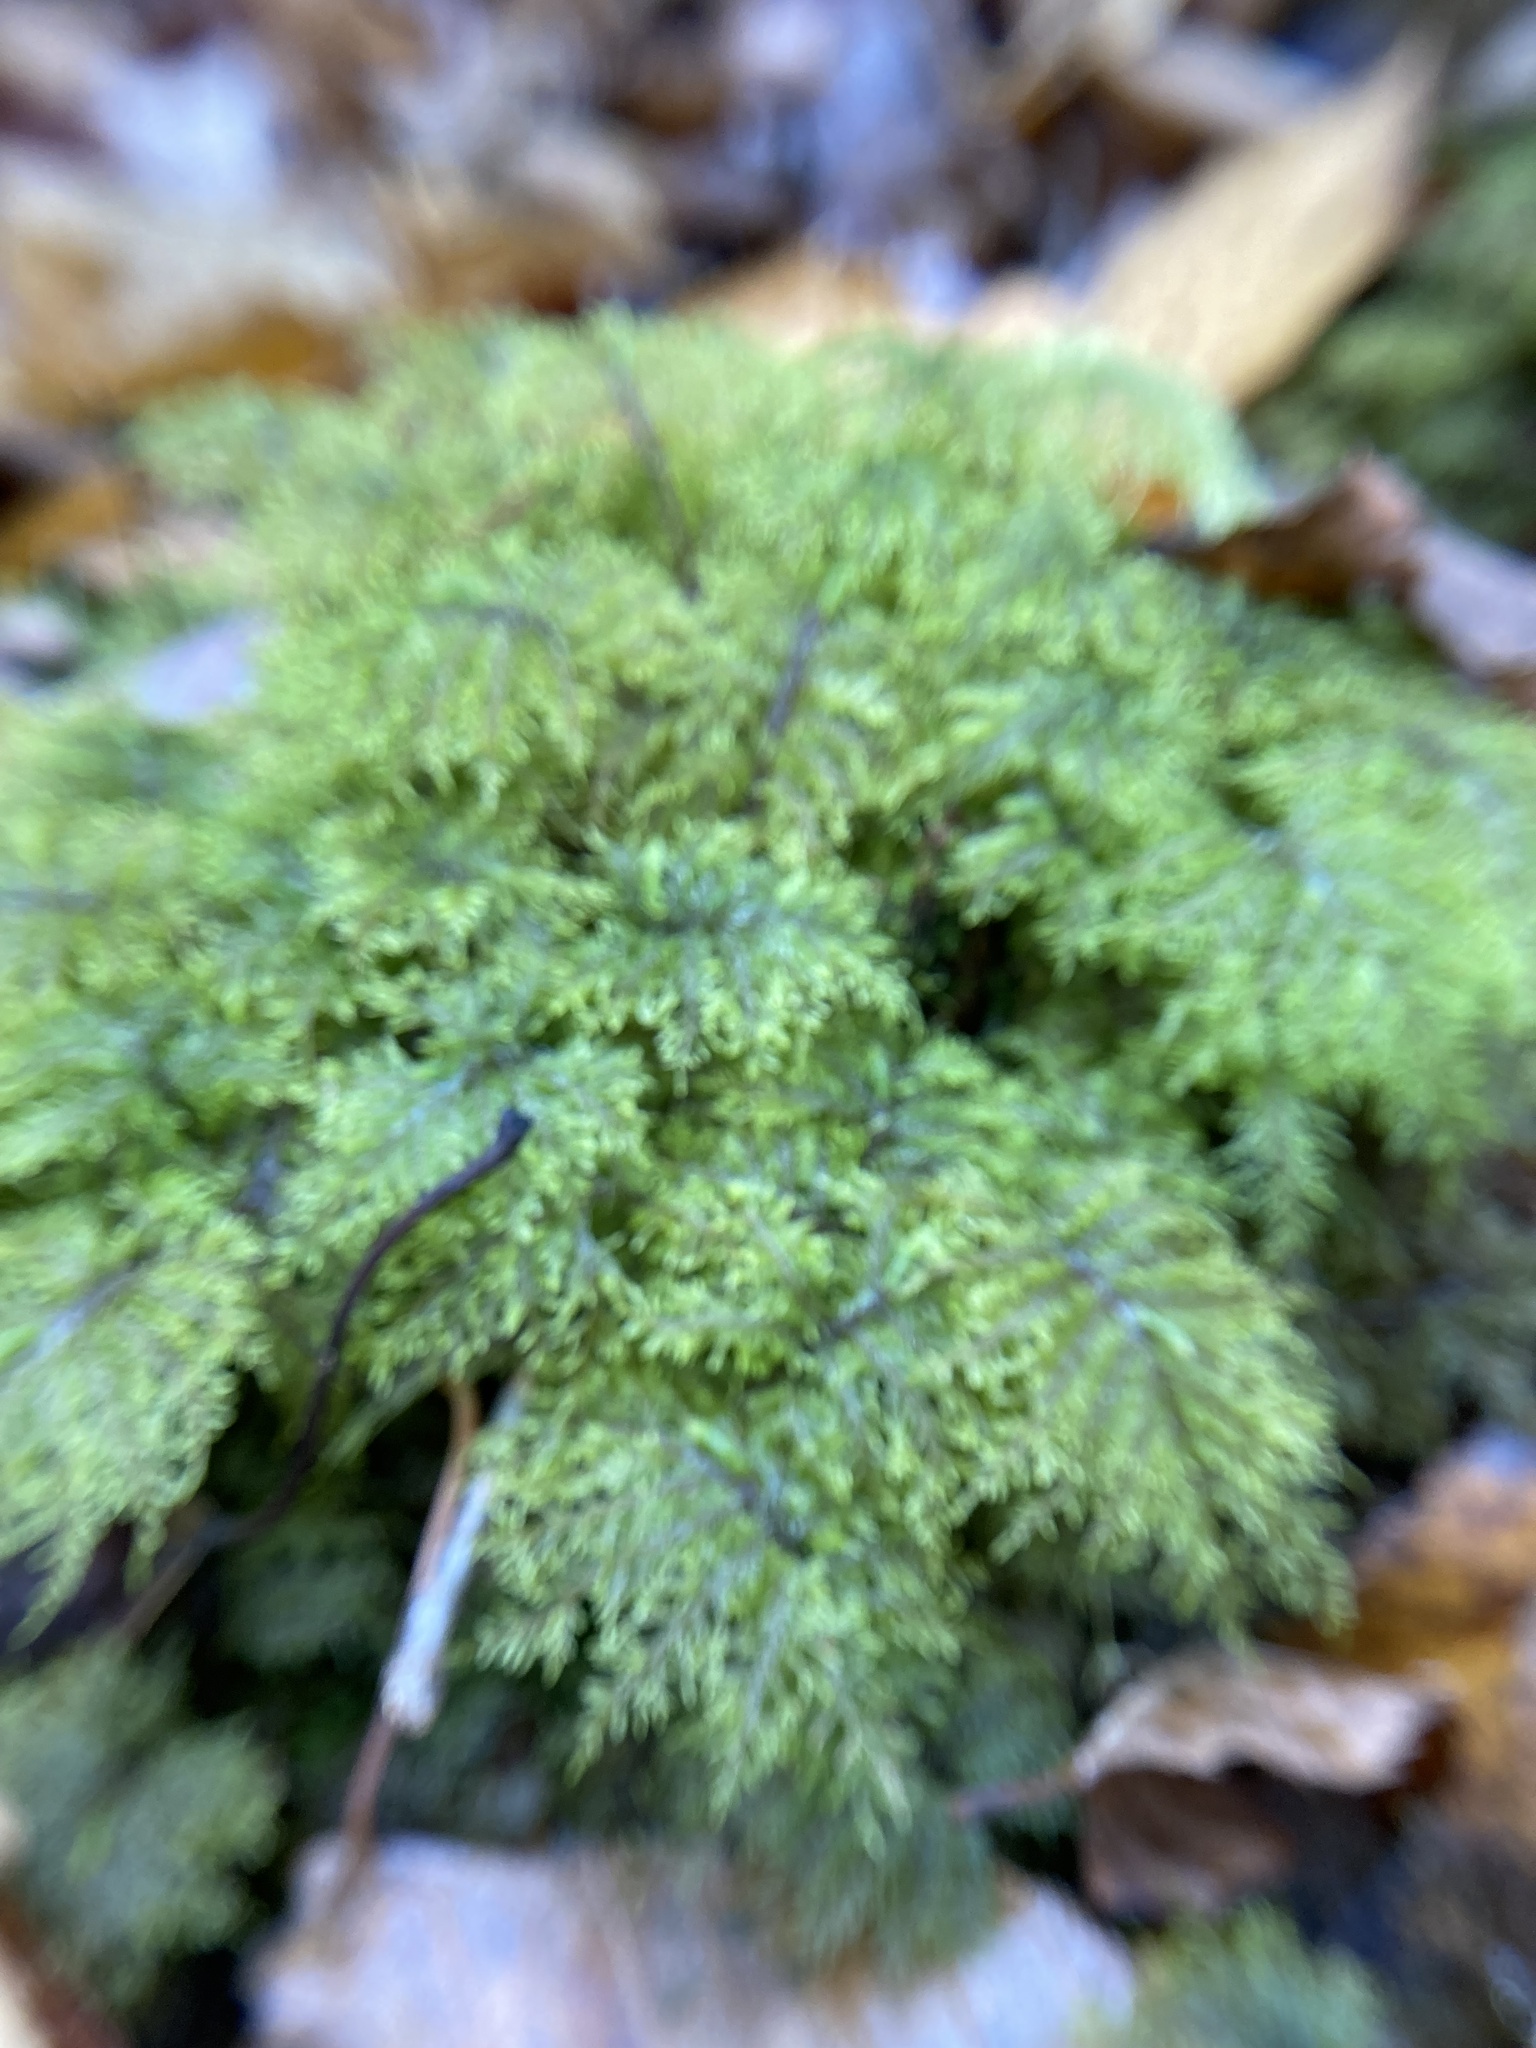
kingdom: Plantae
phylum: Bryophyta
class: Bryopsida
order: Hypnales
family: Hylocomiaceae
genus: Hylocomium
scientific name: Hylocomium splendens
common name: Stairstep moss
